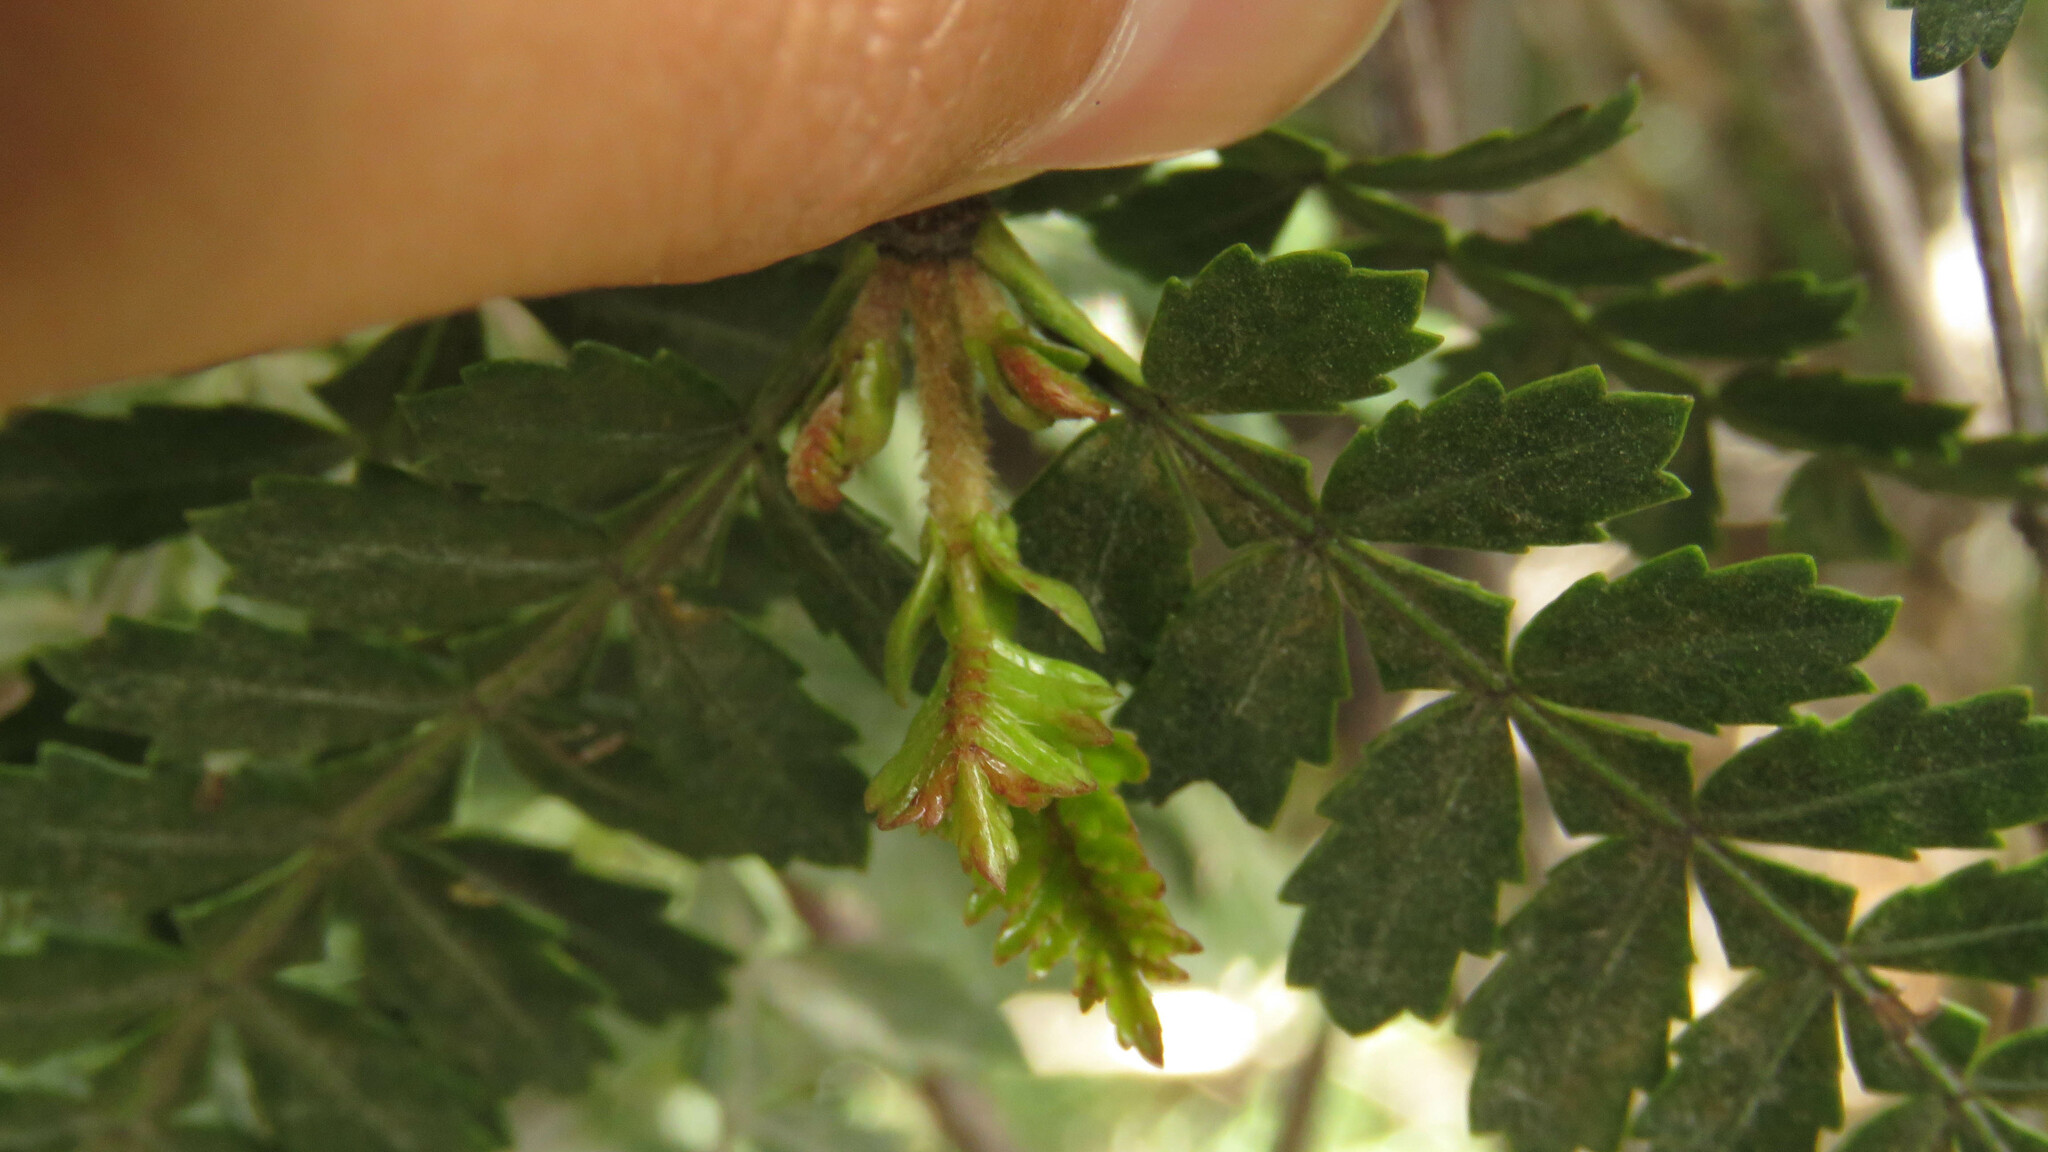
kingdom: Plantae
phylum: Tracheophyta
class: Magnoliopsida
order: Oxalidales
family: Cunoniaceae
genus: Weinmannia
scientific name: Weinmannia trichosperma
